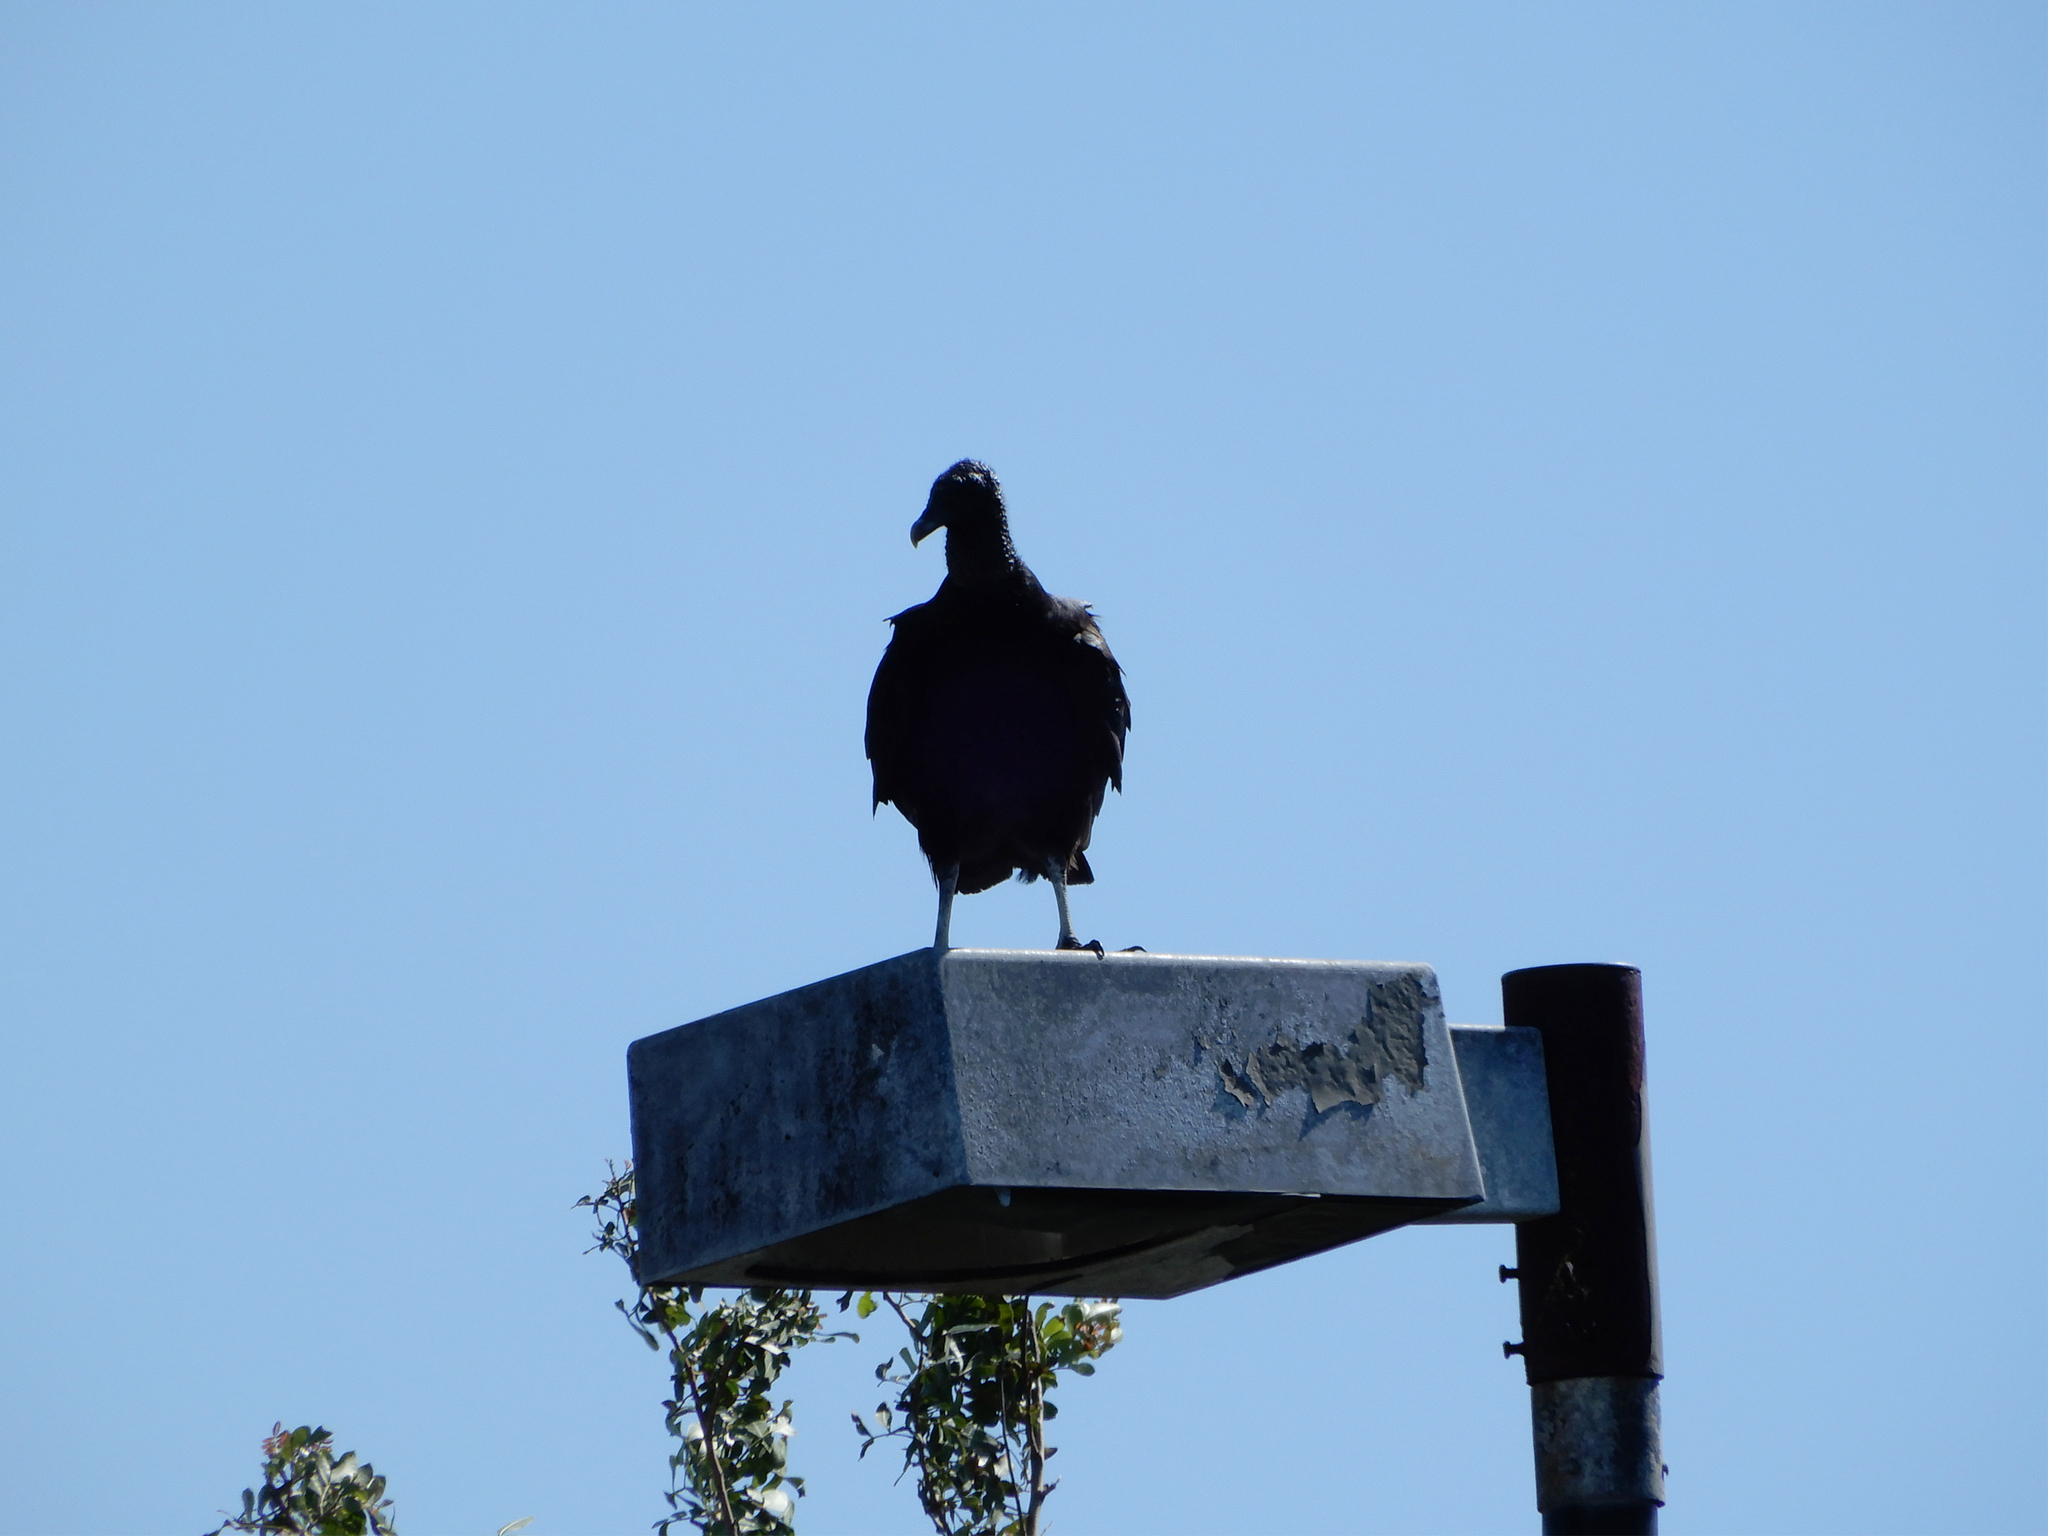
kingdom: Animalia
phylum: Chordata
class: Aves
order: Accipitriformes
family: Cathartidae
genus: Coragyps
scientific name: Coragyps atratus
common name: Black vulture
